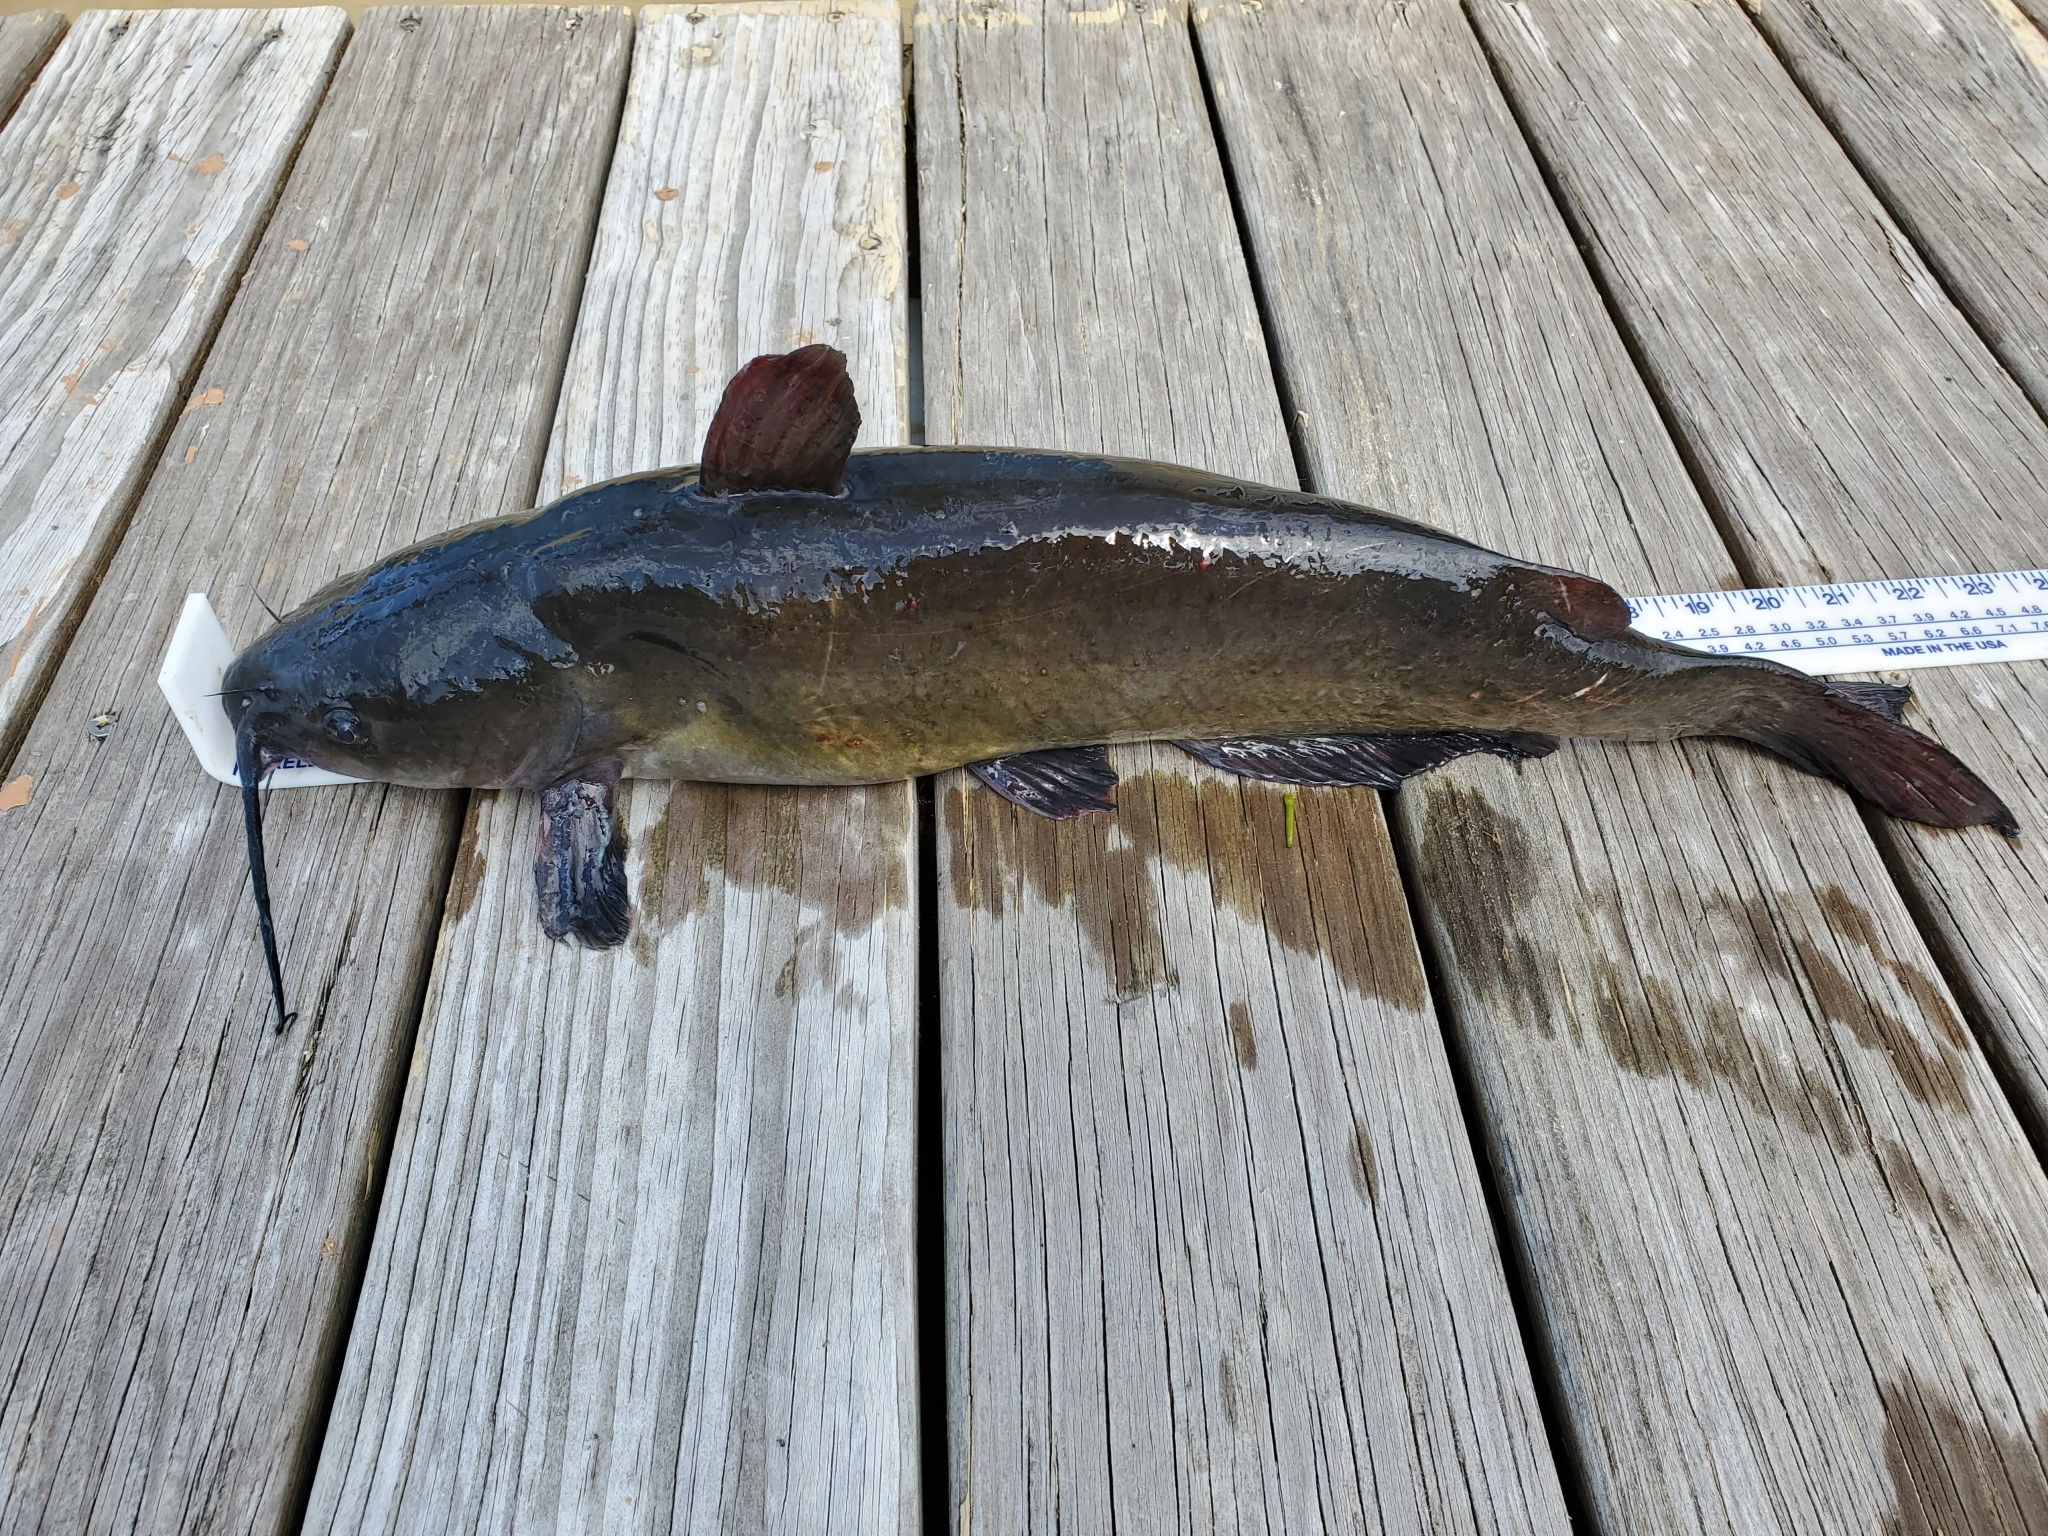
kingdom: Animalia
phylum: Chordata
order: Siluriformes
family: Ictaluridae
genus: Ictalurus
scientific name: Ictalurus punctatus
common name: Channel catfish
